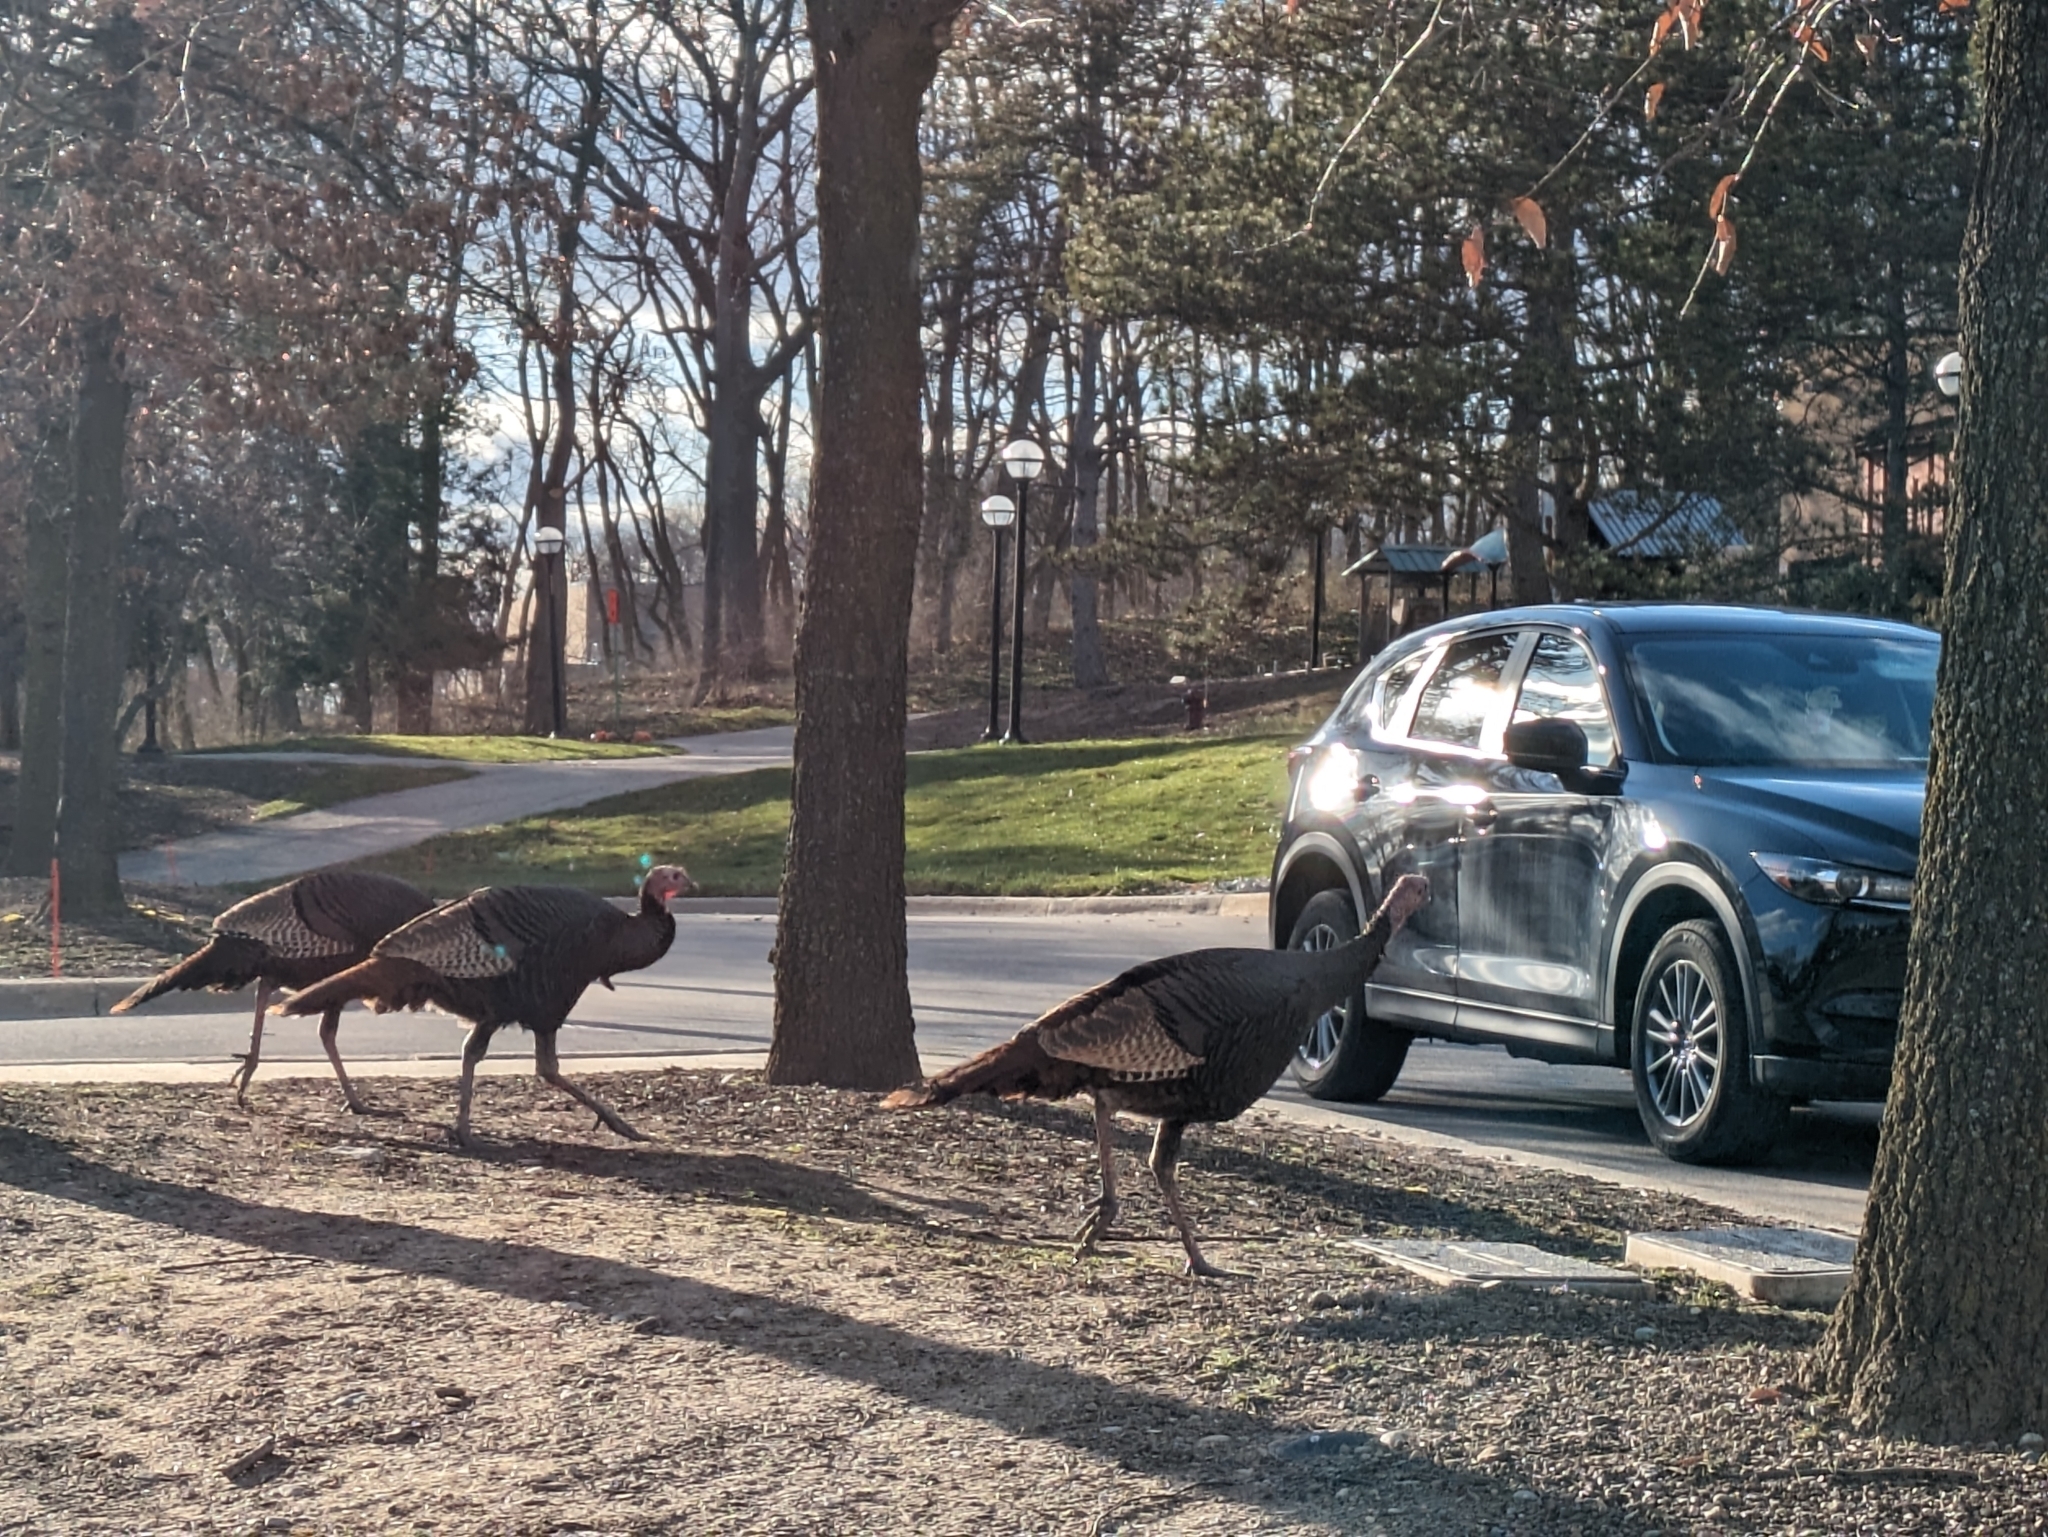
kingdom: Animalia
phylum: Chordata
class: Aves
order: Galliformes
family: Phasianidae
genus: Meleagris
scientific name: Meleagris gallopavo
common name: Wild turkey
